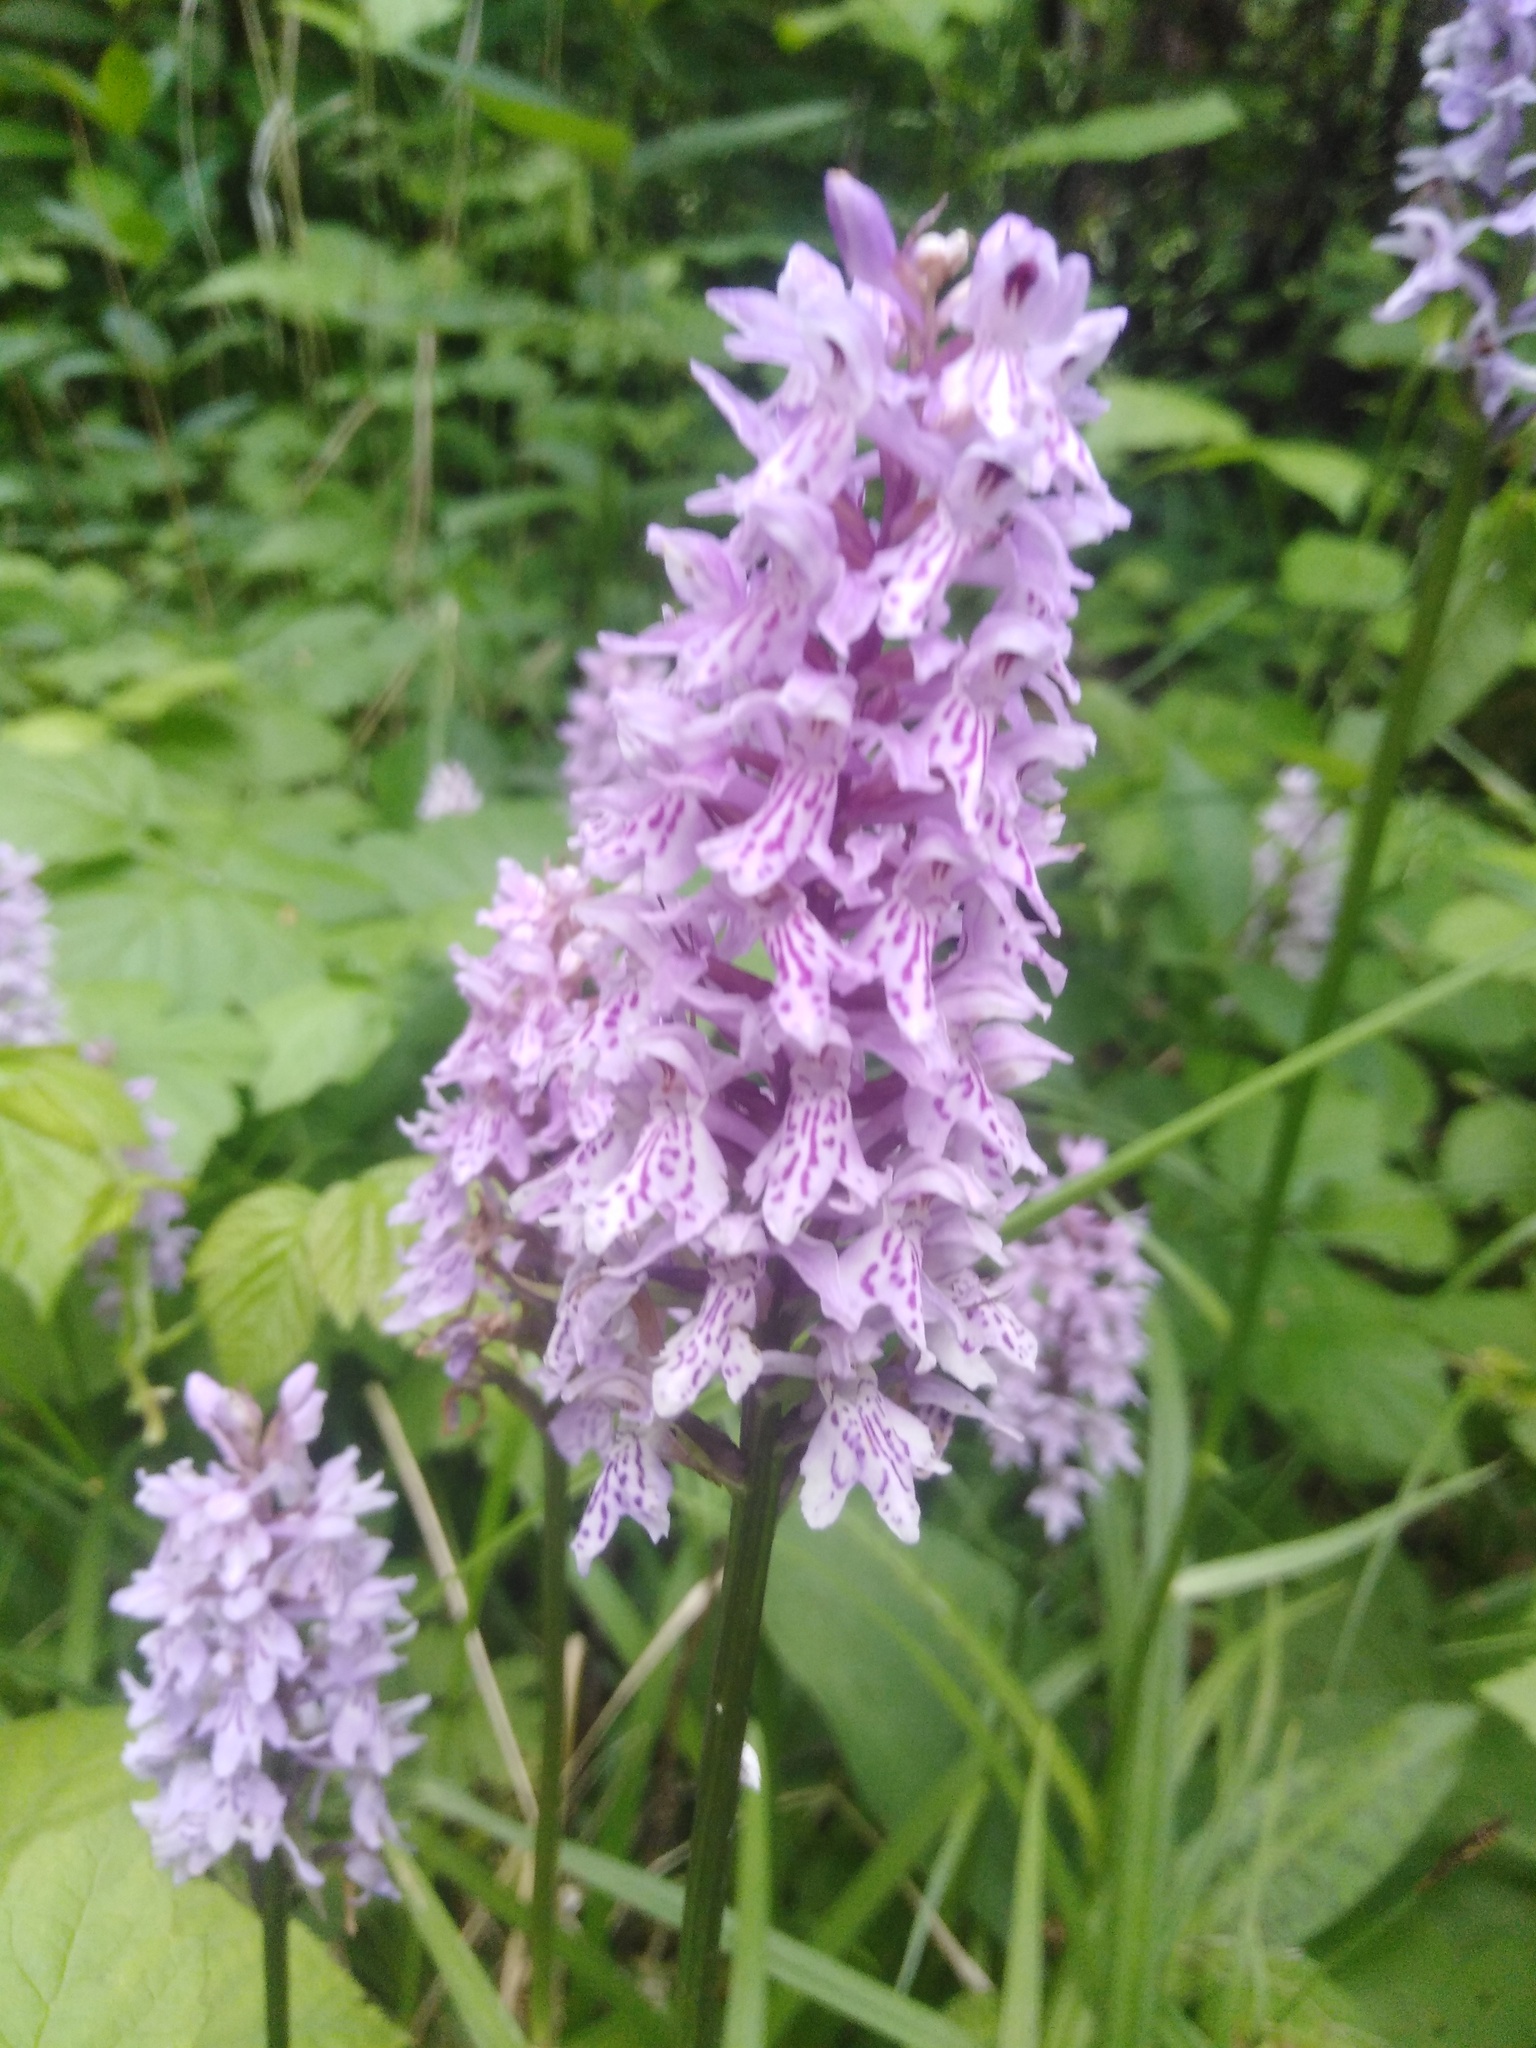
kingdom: Plantae
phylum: Tracheophyta
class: Liliopsida
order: Asparagales
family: Orchidaceae
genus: Dactylorhiza
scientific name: Dactylorhiza maculata
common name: Heath spotted-orchid
